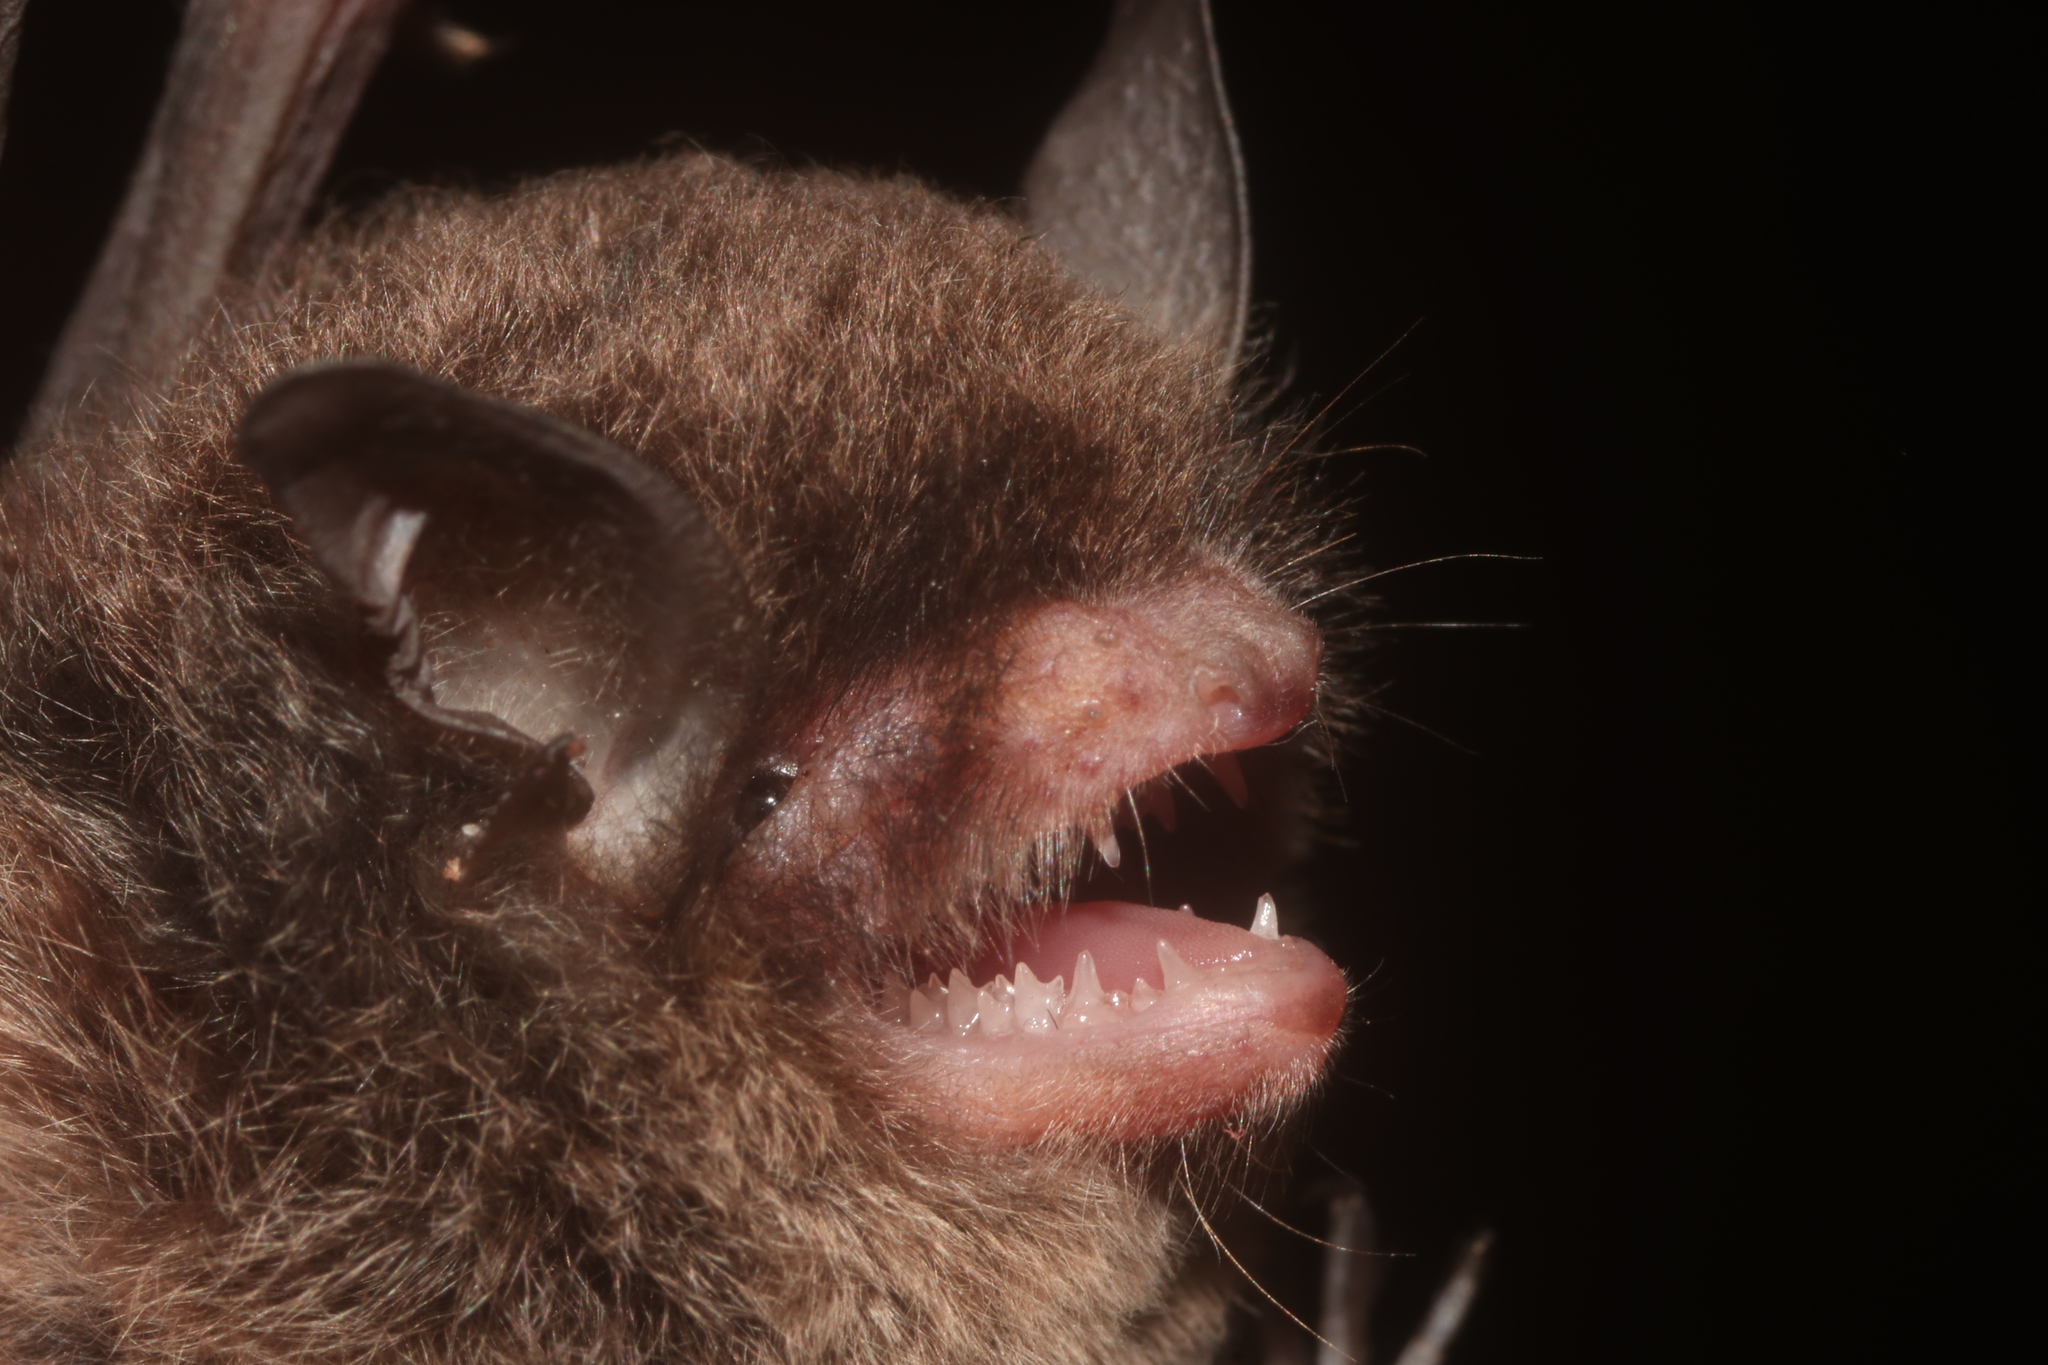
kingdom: Animalia
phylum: Chordata
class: Mammalia
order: Chiroptera
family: Vespertilionidae
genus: Myotis
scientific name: Myotis pilosatibialis
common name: Northern hairy-legged myotis
